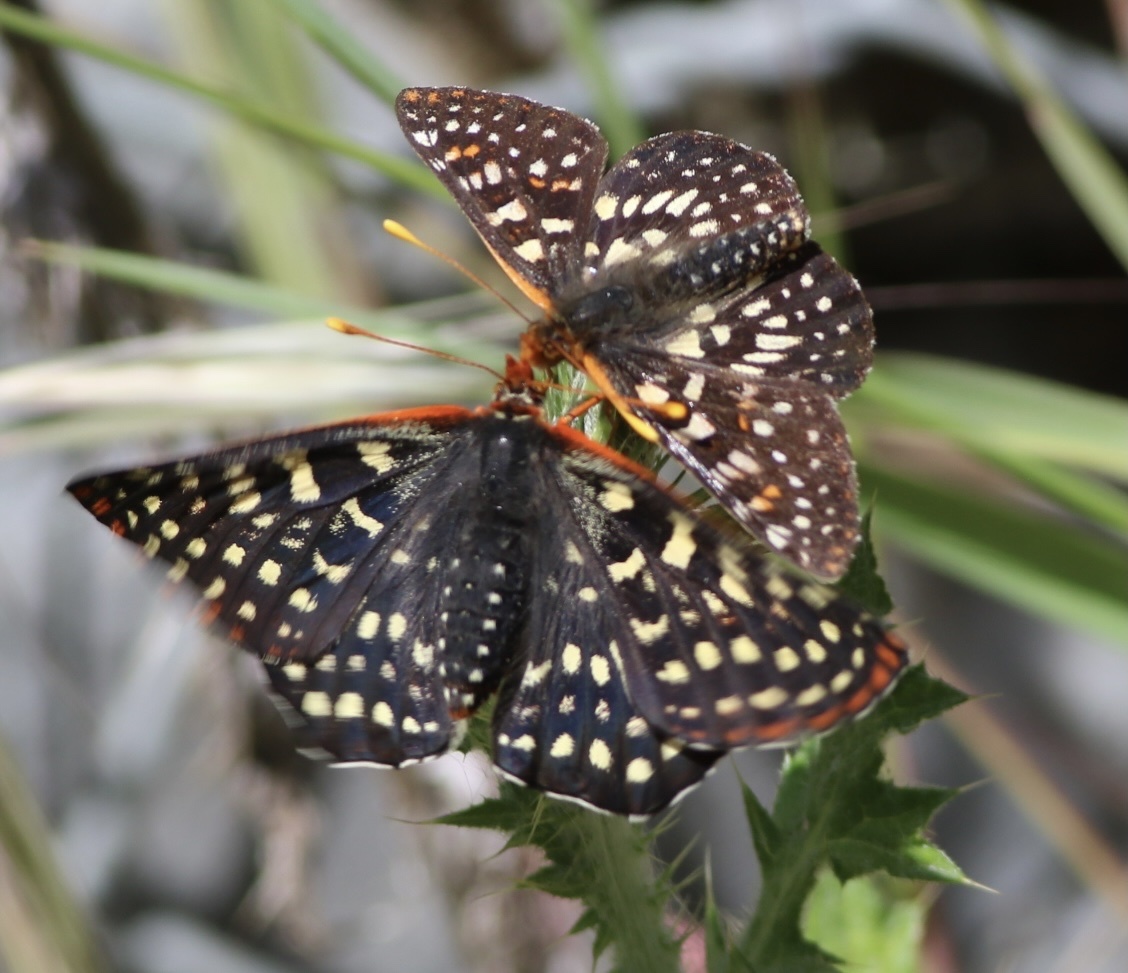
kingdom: Animalia
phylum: Arthropoda
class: Insecta
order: Lepidoptera
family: Nymphalidae
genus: Occidryas
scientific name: Occidryas chalcedona
